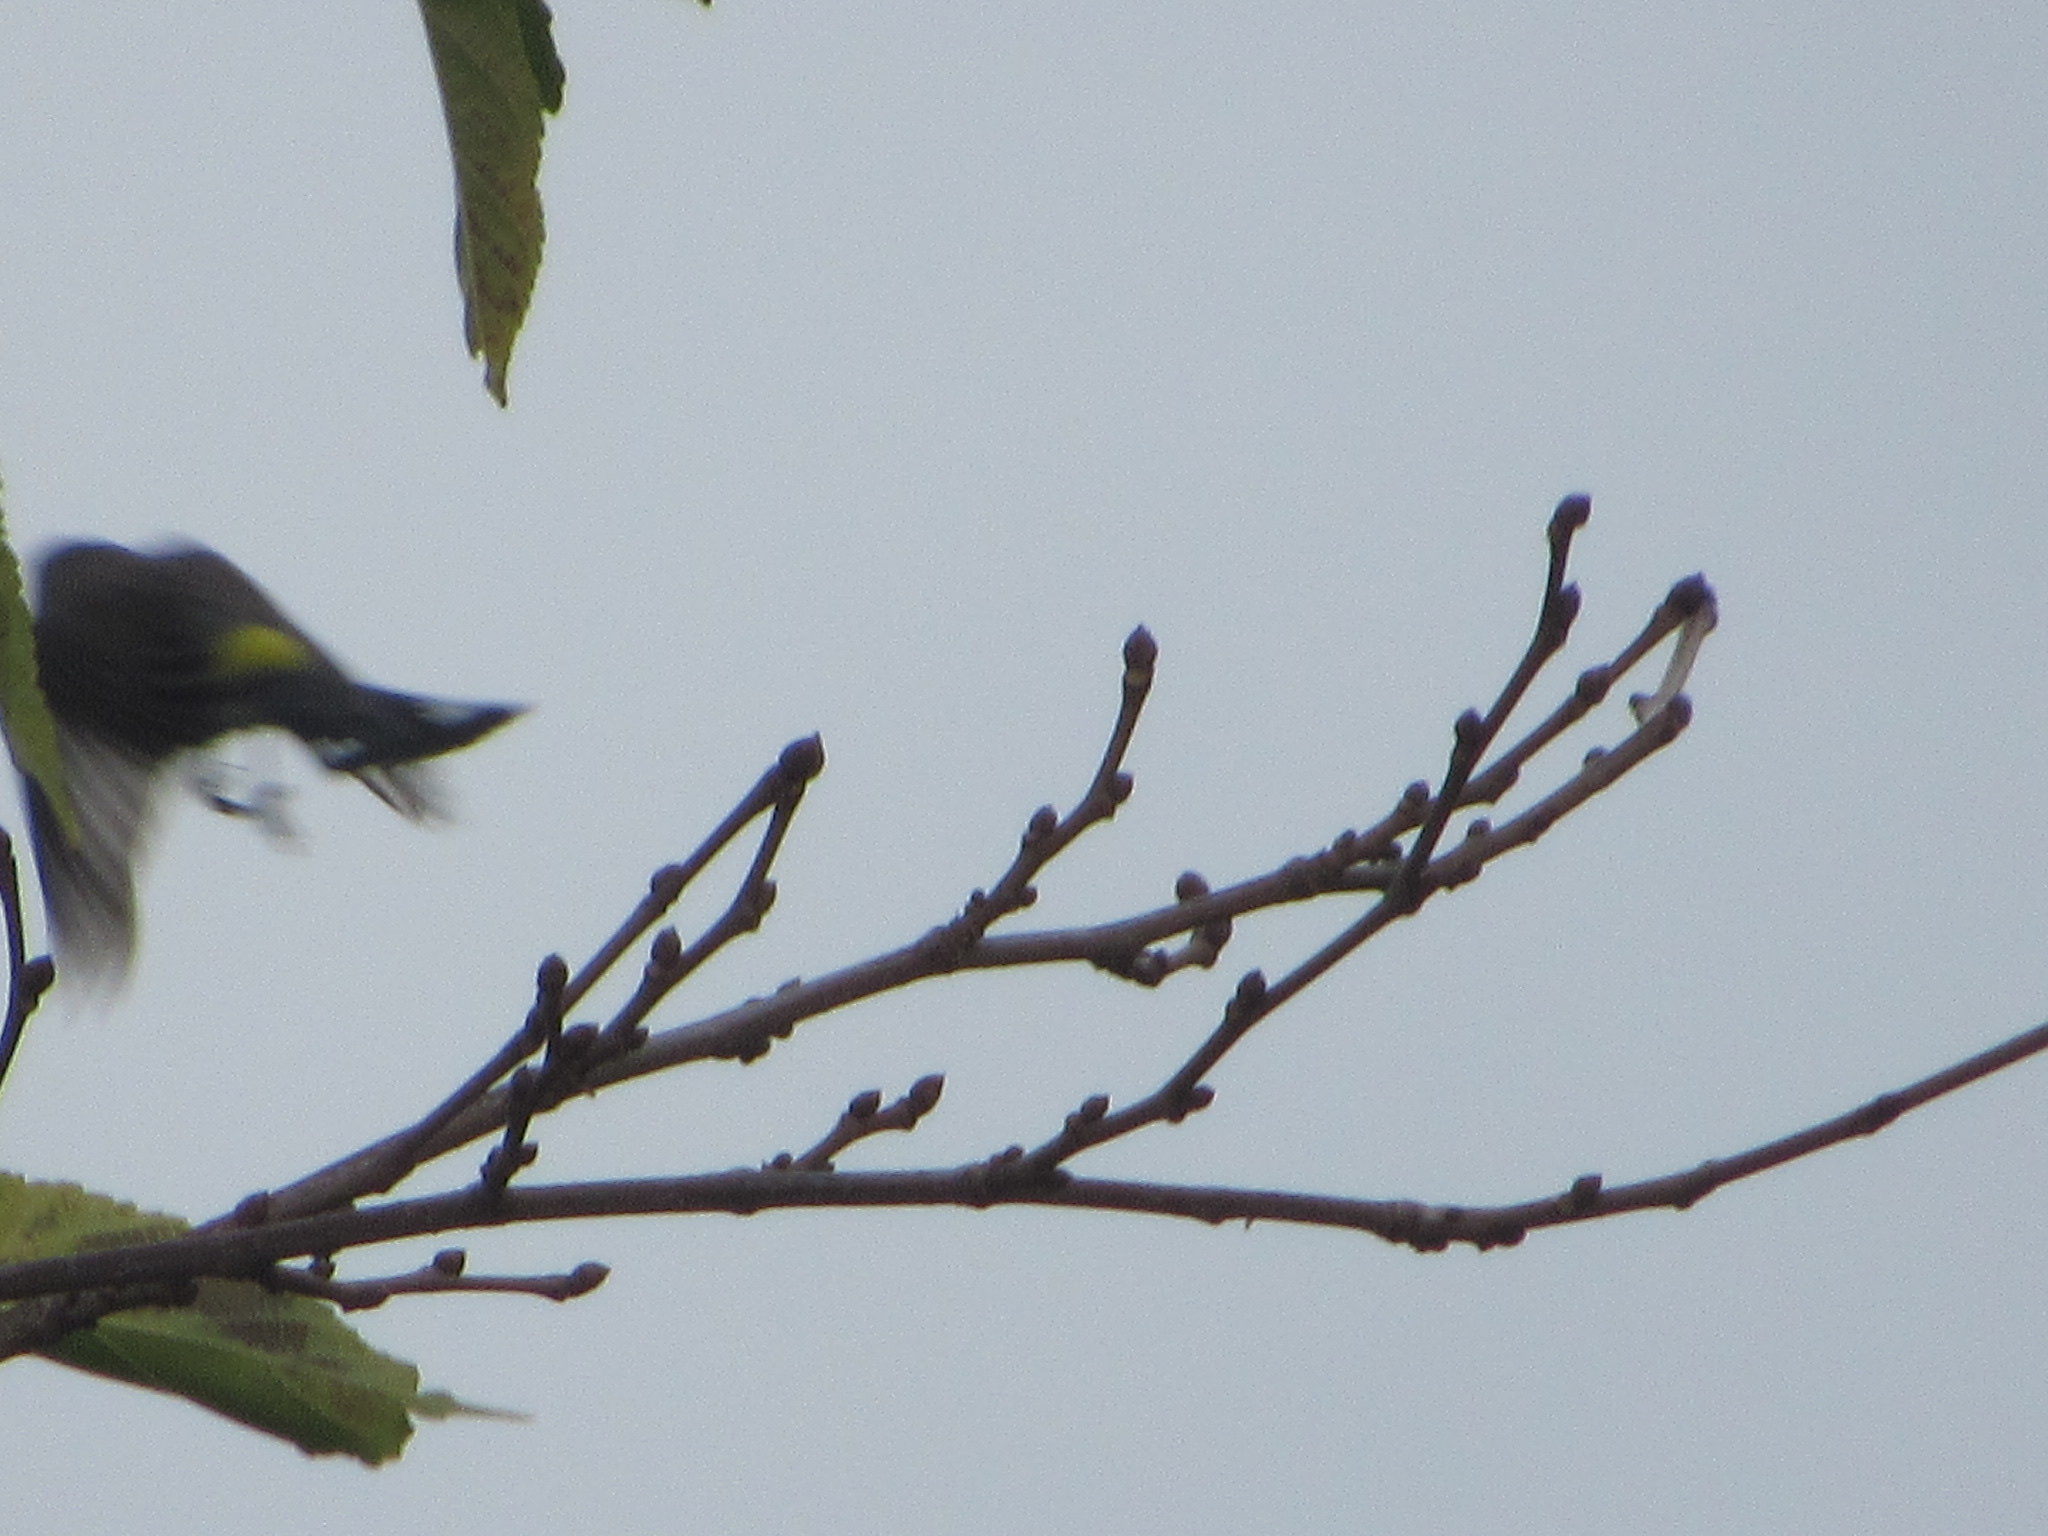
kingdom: Animalia
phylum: Chordata
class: Aves
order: Passeriformes
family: Parulidae
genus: Setophaga
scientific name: Setophaga coronata
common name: Myrtle warbler
